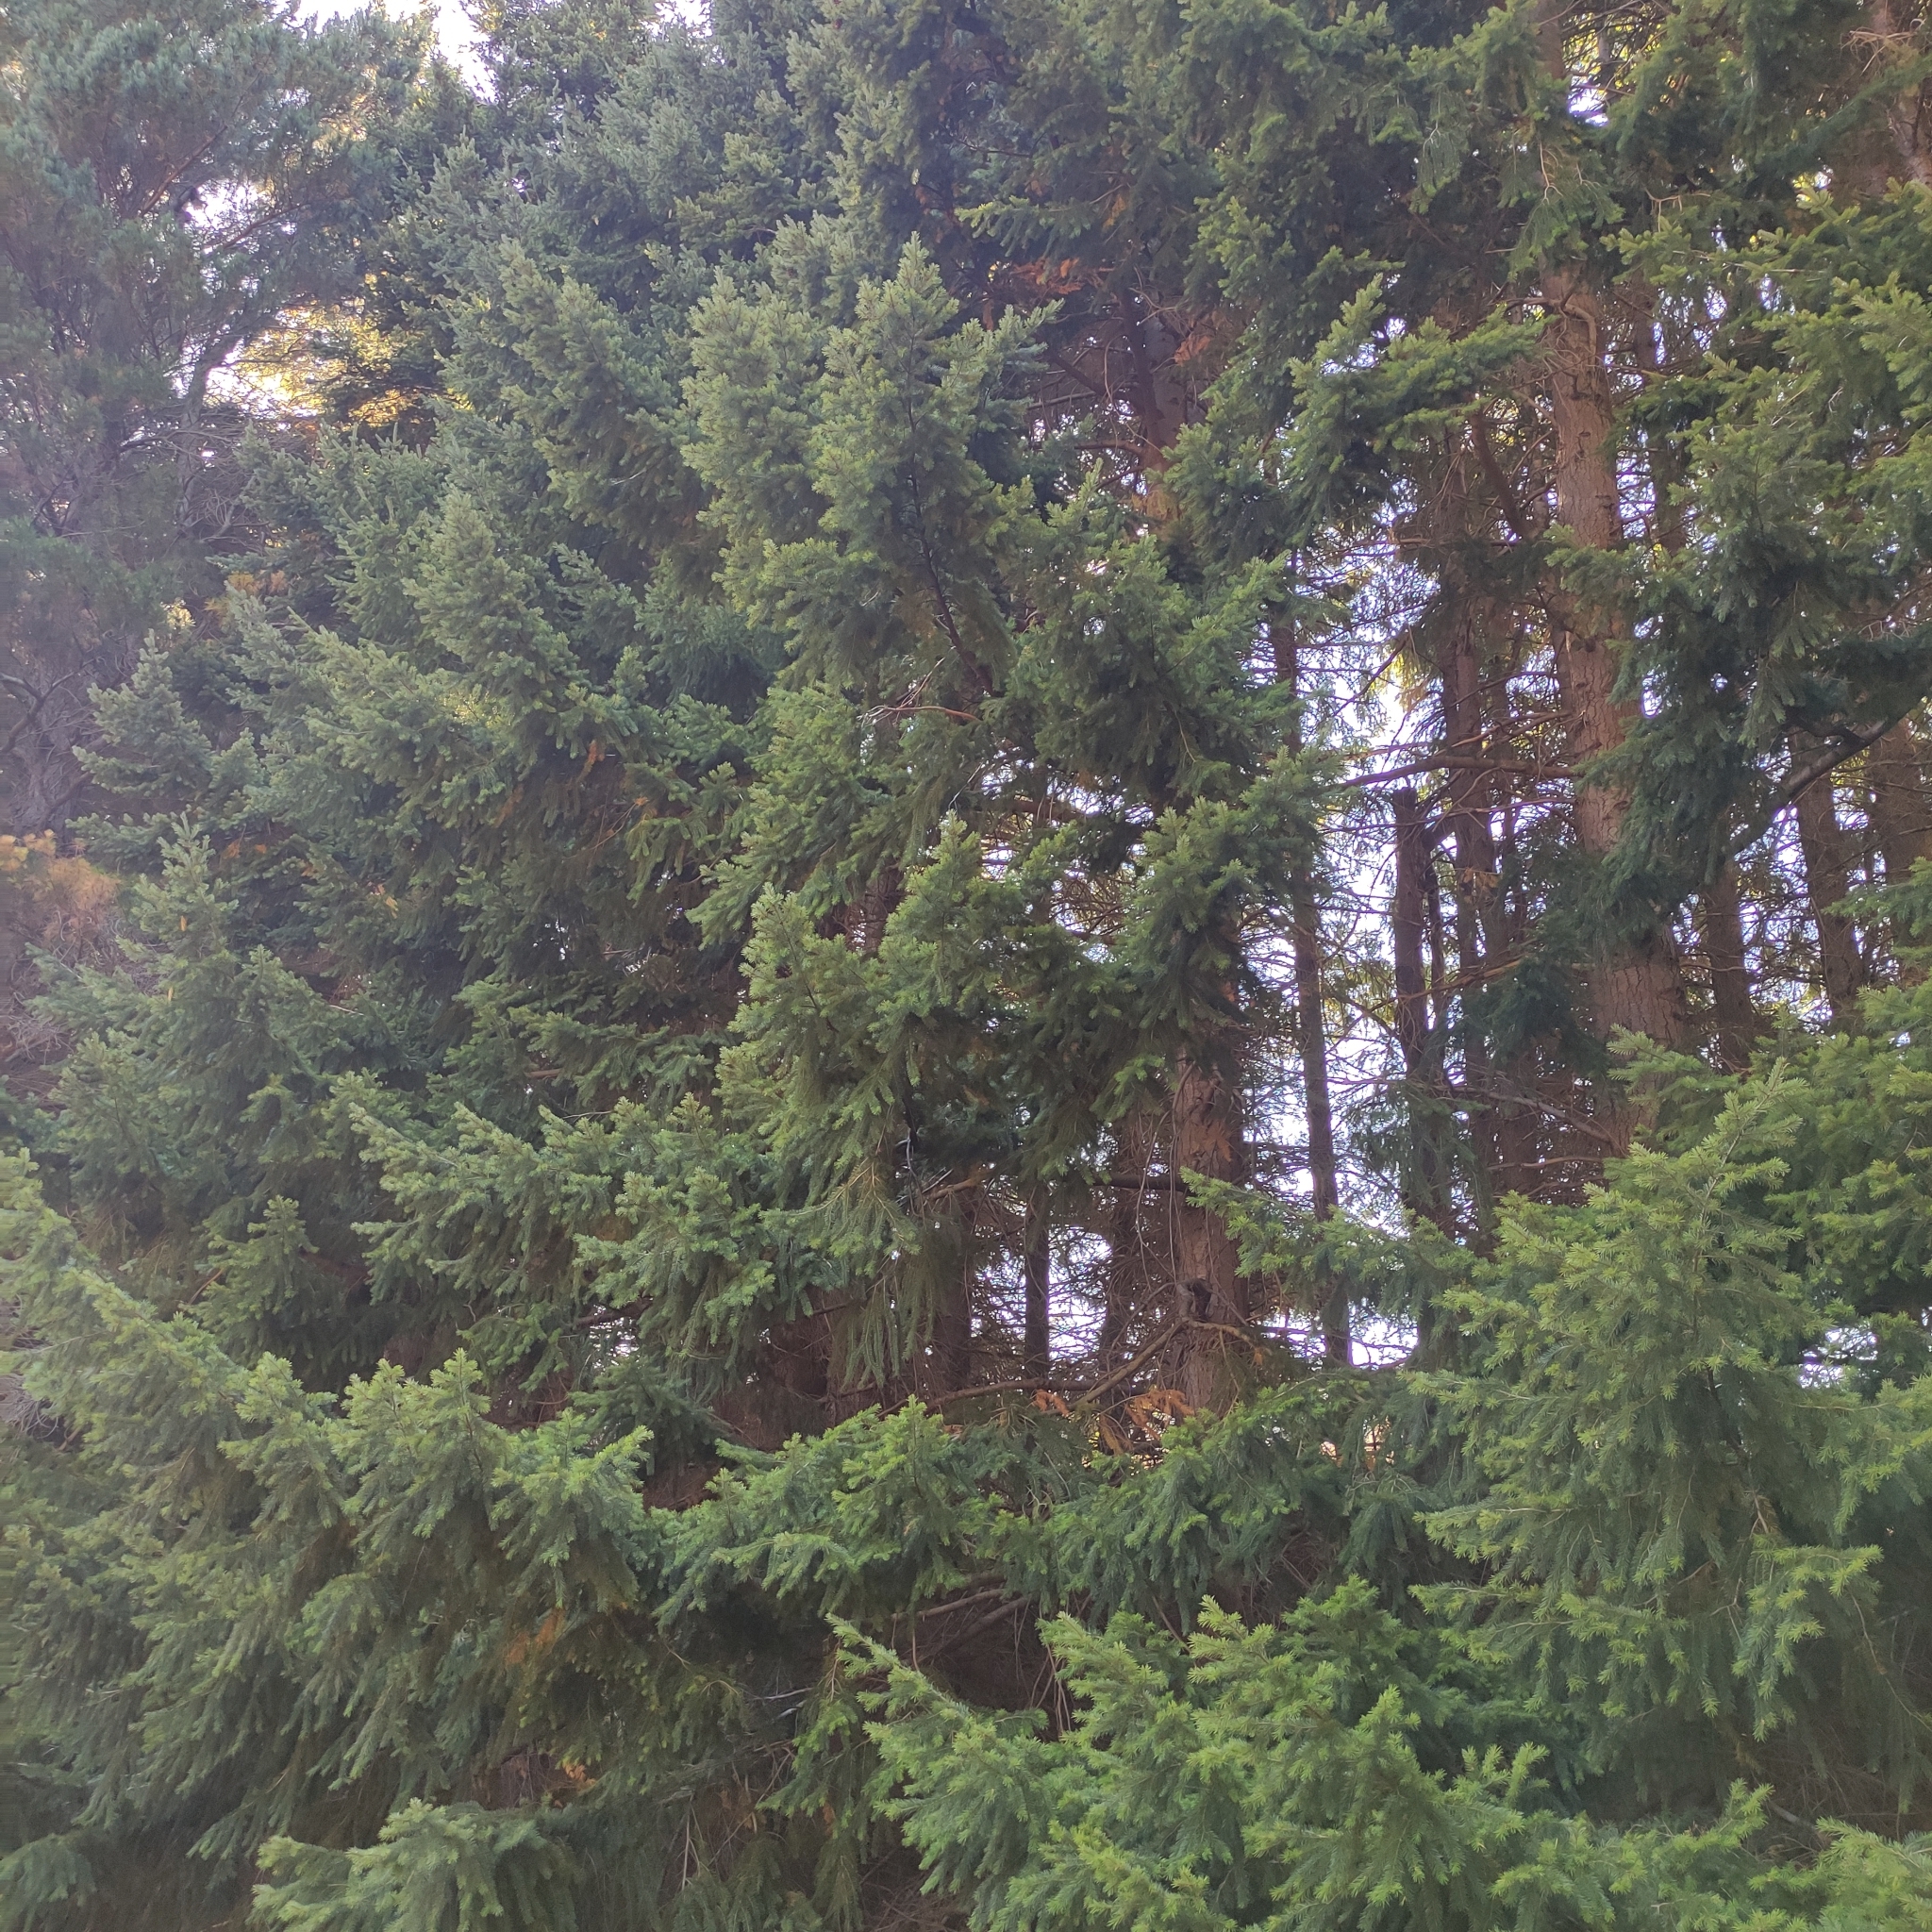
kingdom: Plantae
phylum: Tracheophyta
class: Pinopsida
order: Pinales
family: Pinaceae
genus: Pseudotsuga
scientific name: Pseudotsuga menziesii
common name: Douglas fir
